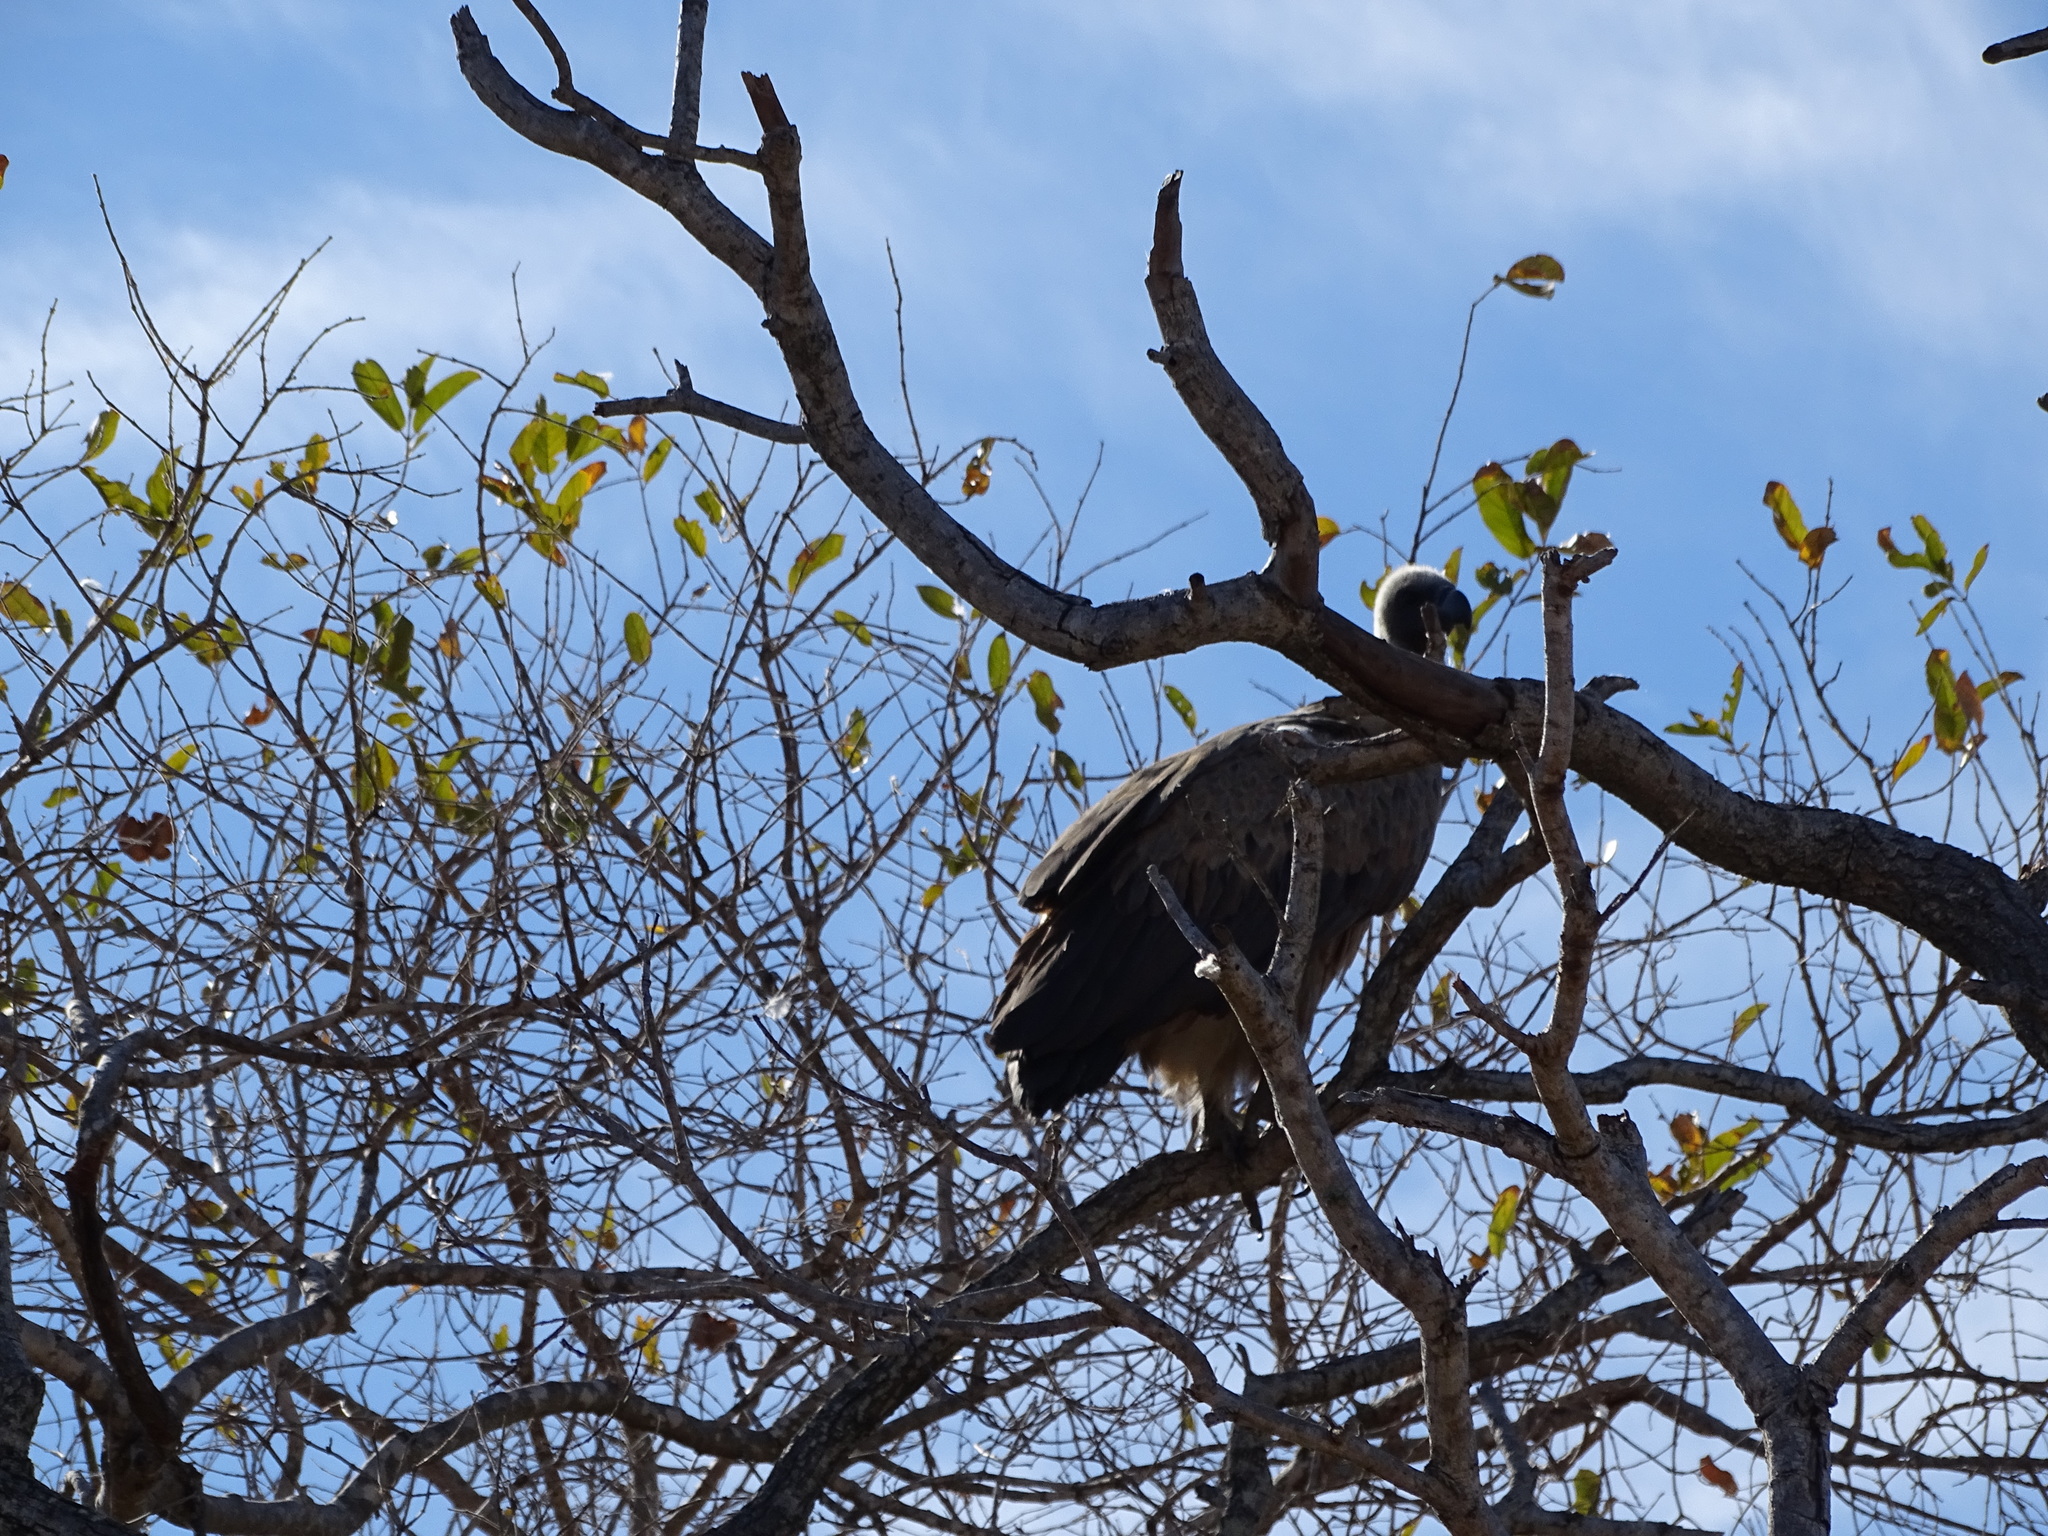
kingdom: Animalia
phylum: Chordata
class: Aves
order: Accipitriformes
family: Accipitridae
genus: Gyps
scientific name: Gyps africanus
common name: White-backed vulture
